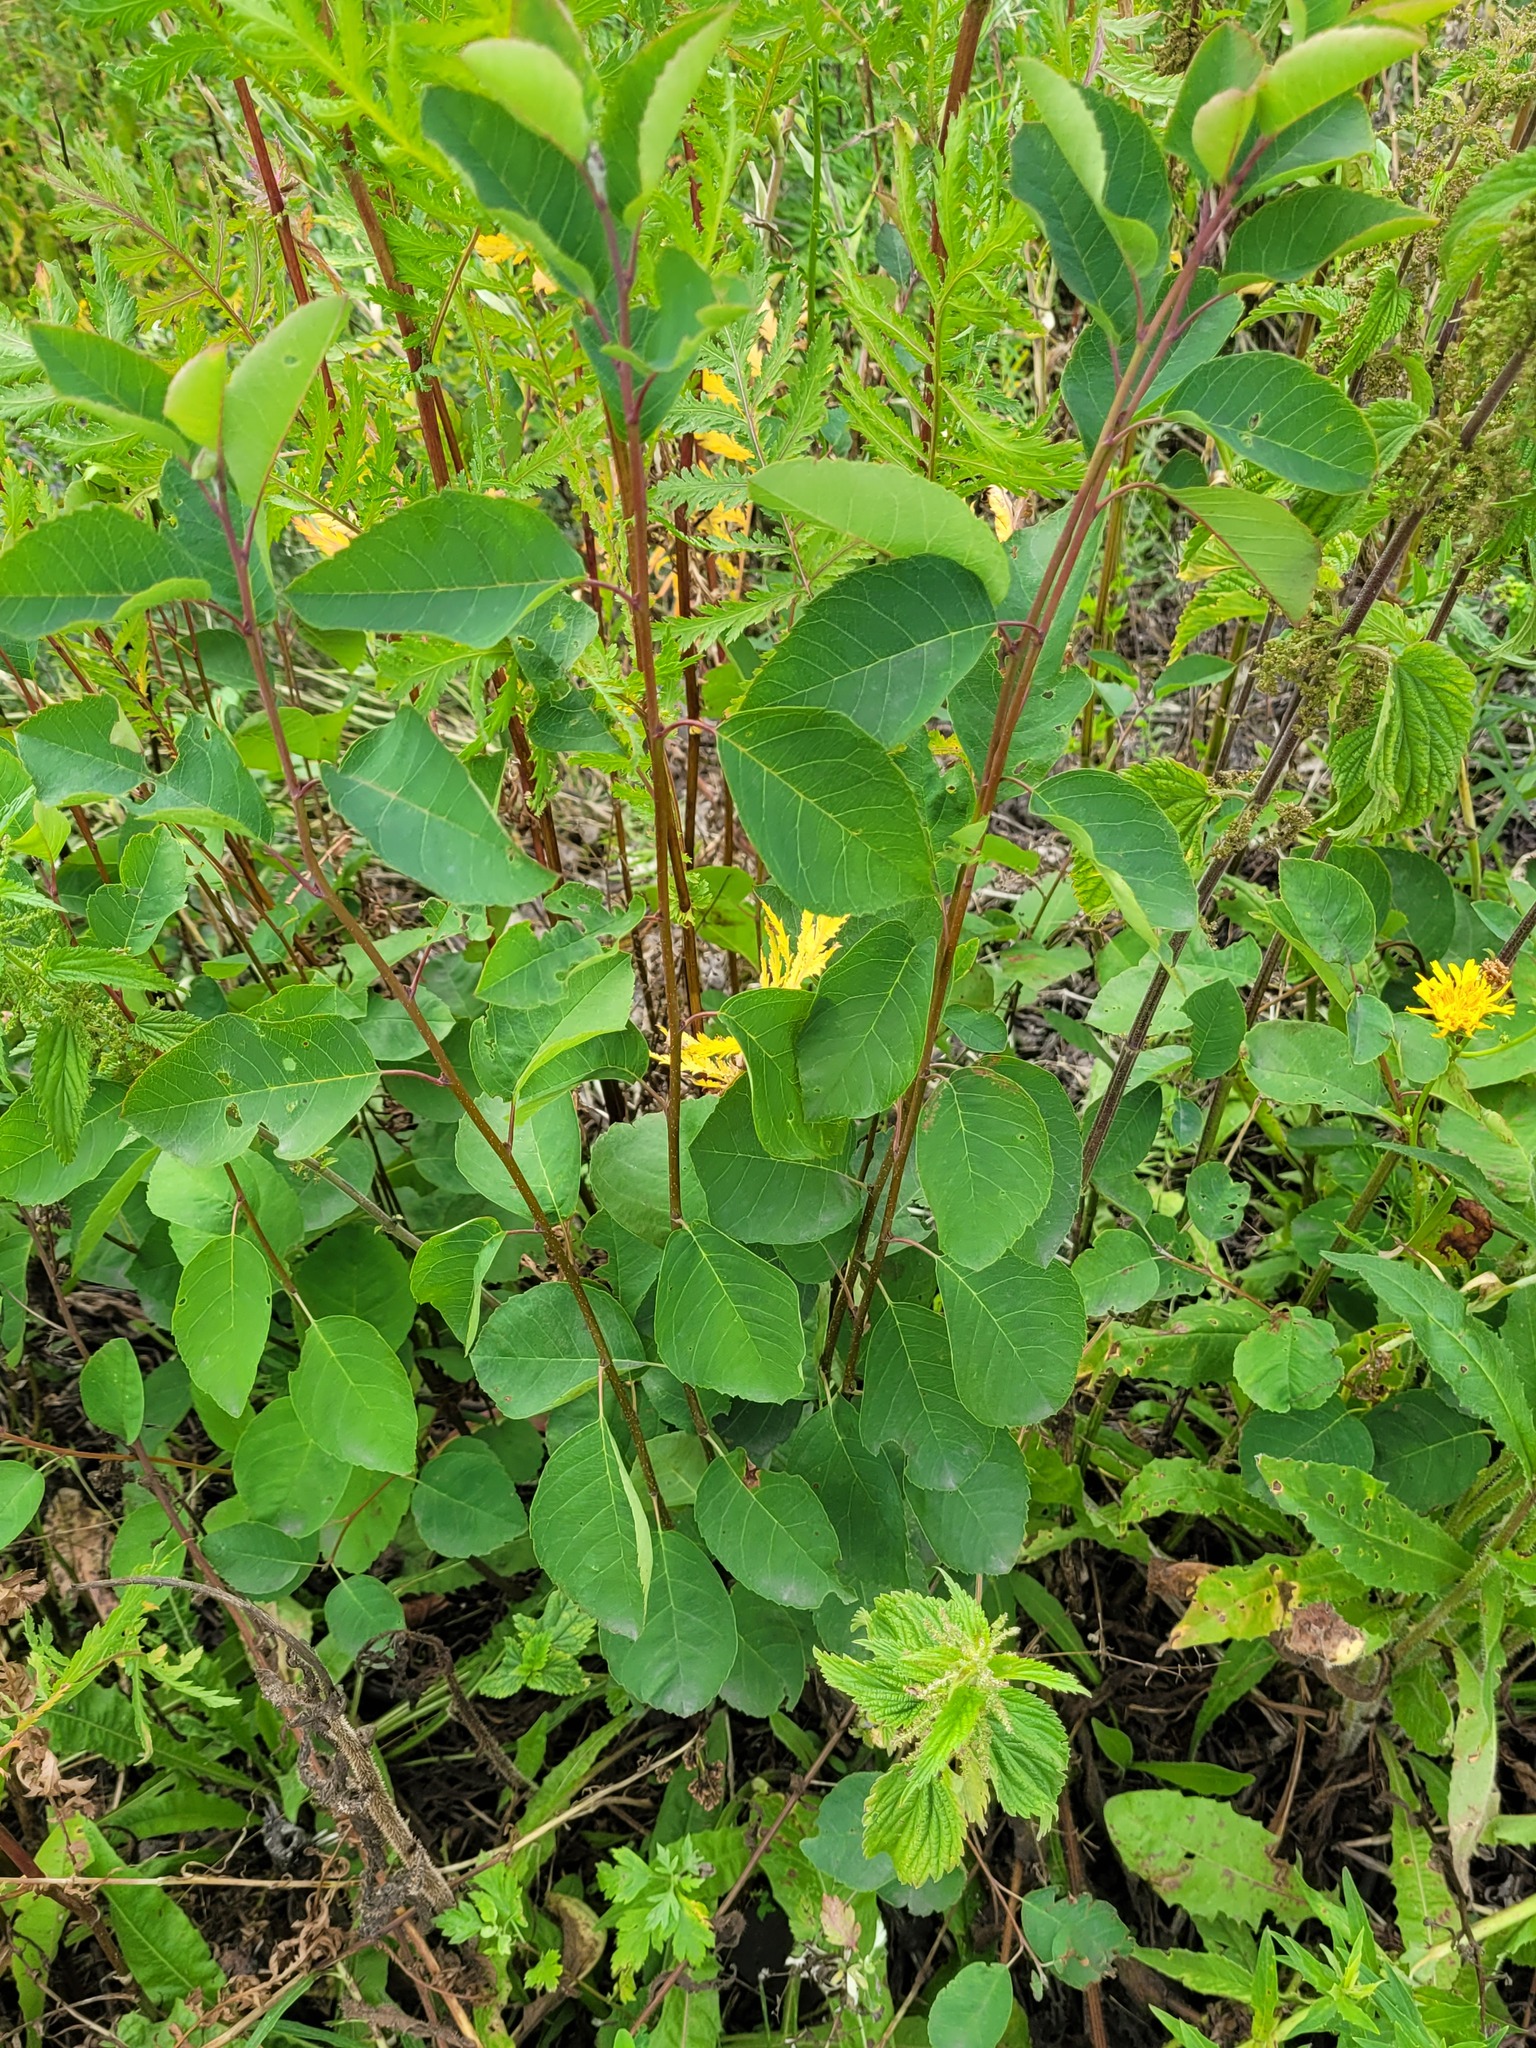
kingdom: Plantae
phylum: Tracheophyta
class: Magnoliopsida
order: Rosales
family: Rosaceae
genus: Amelanchier
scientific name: Amelanchier
